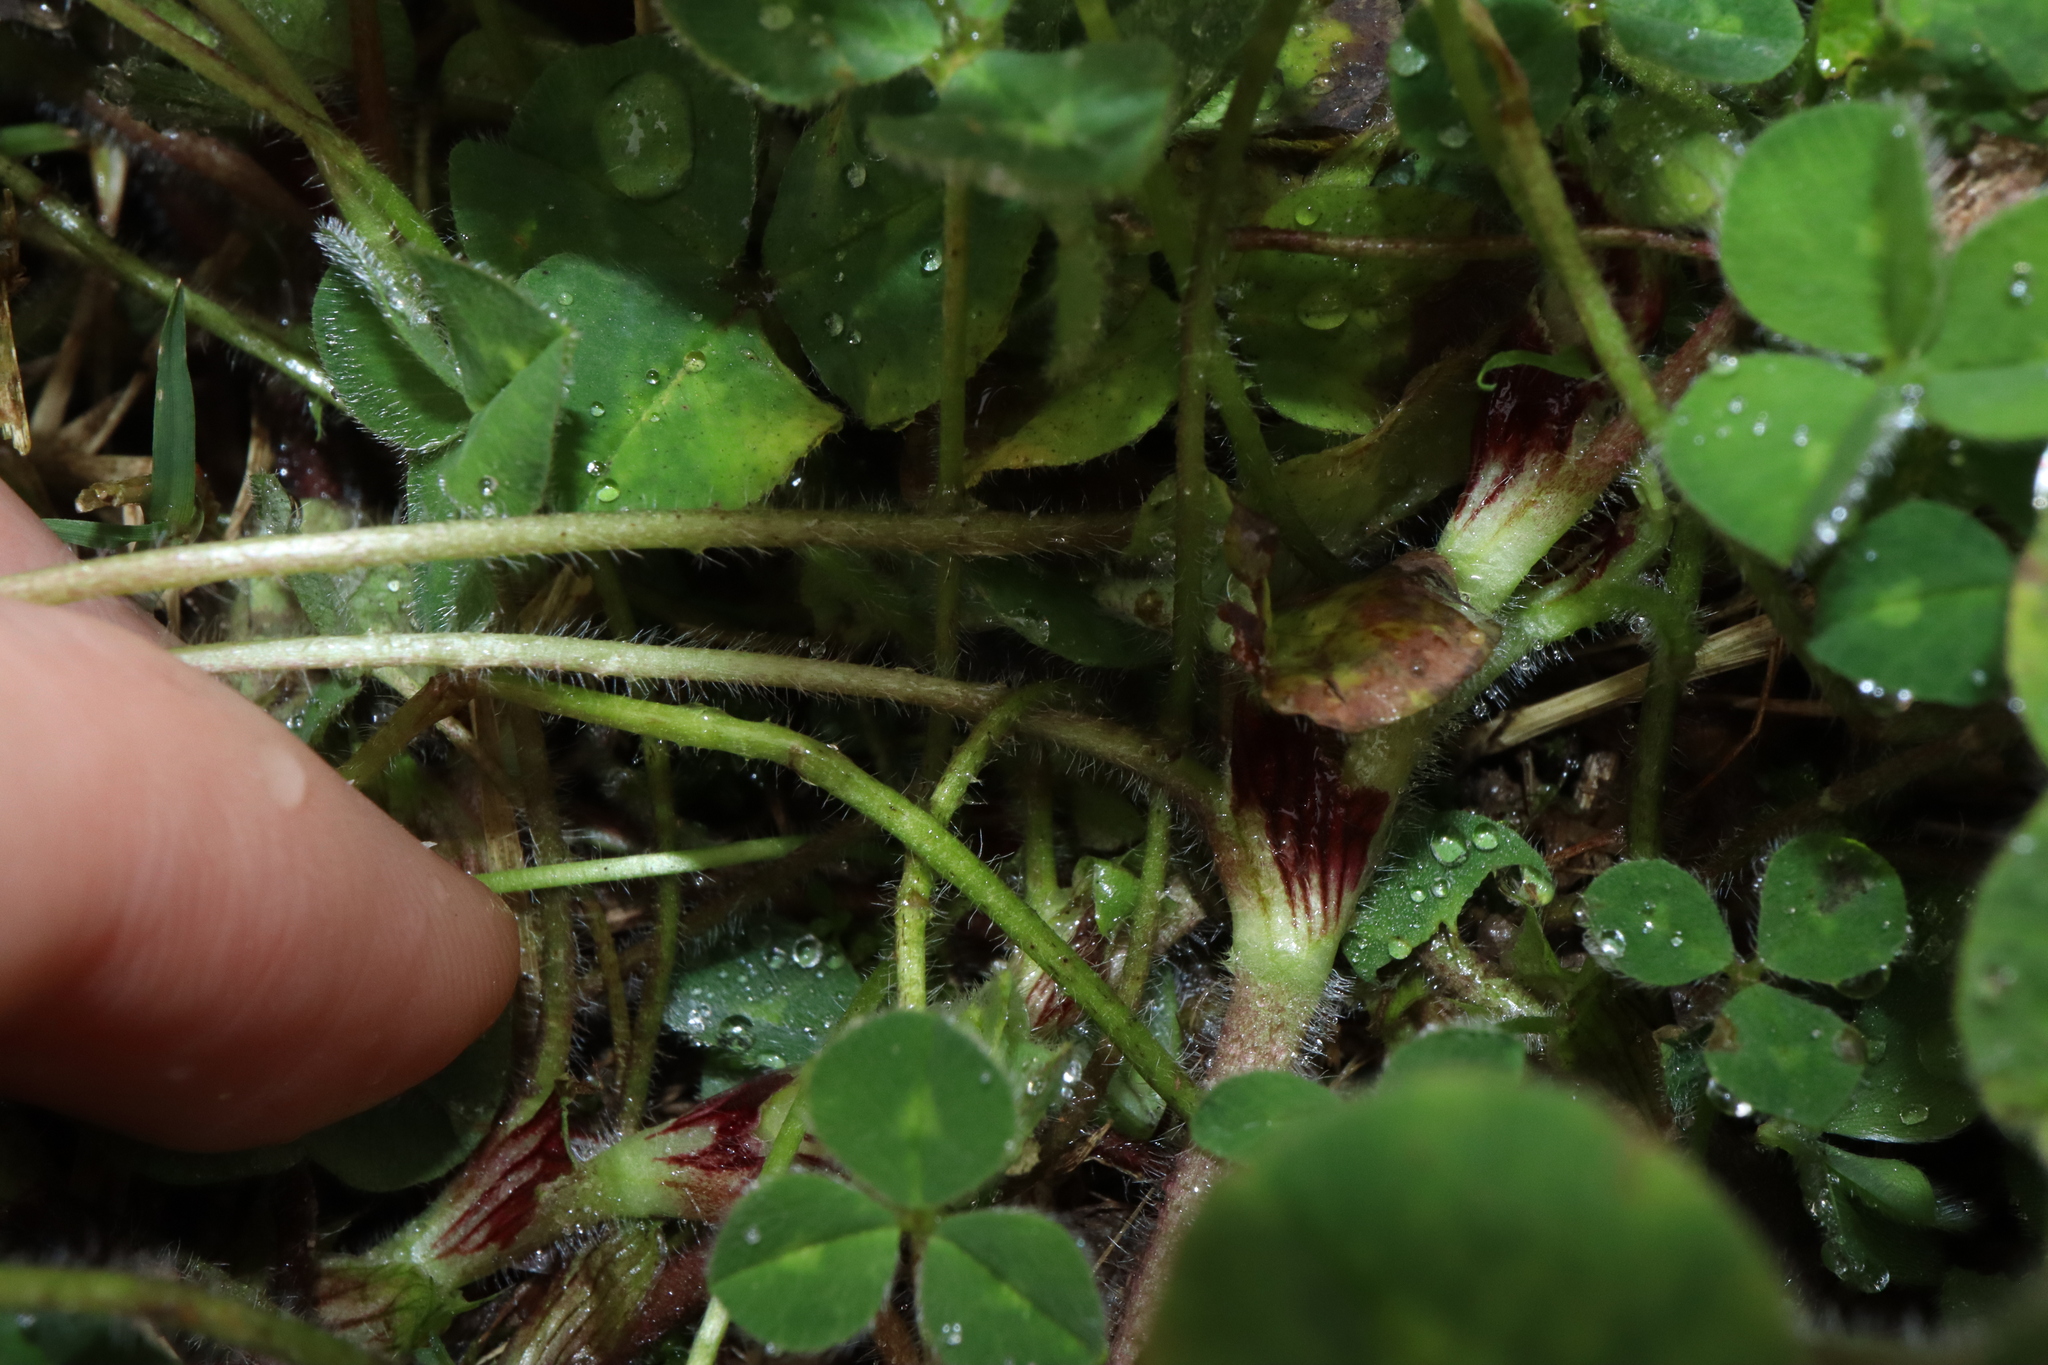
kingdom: Plantae
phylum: Tracheophyta
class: Magnoliopsida
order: Fabales
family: Fabaceae
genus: Trifolium
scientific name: Trifolium subterraneum
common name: Subterranean clover
